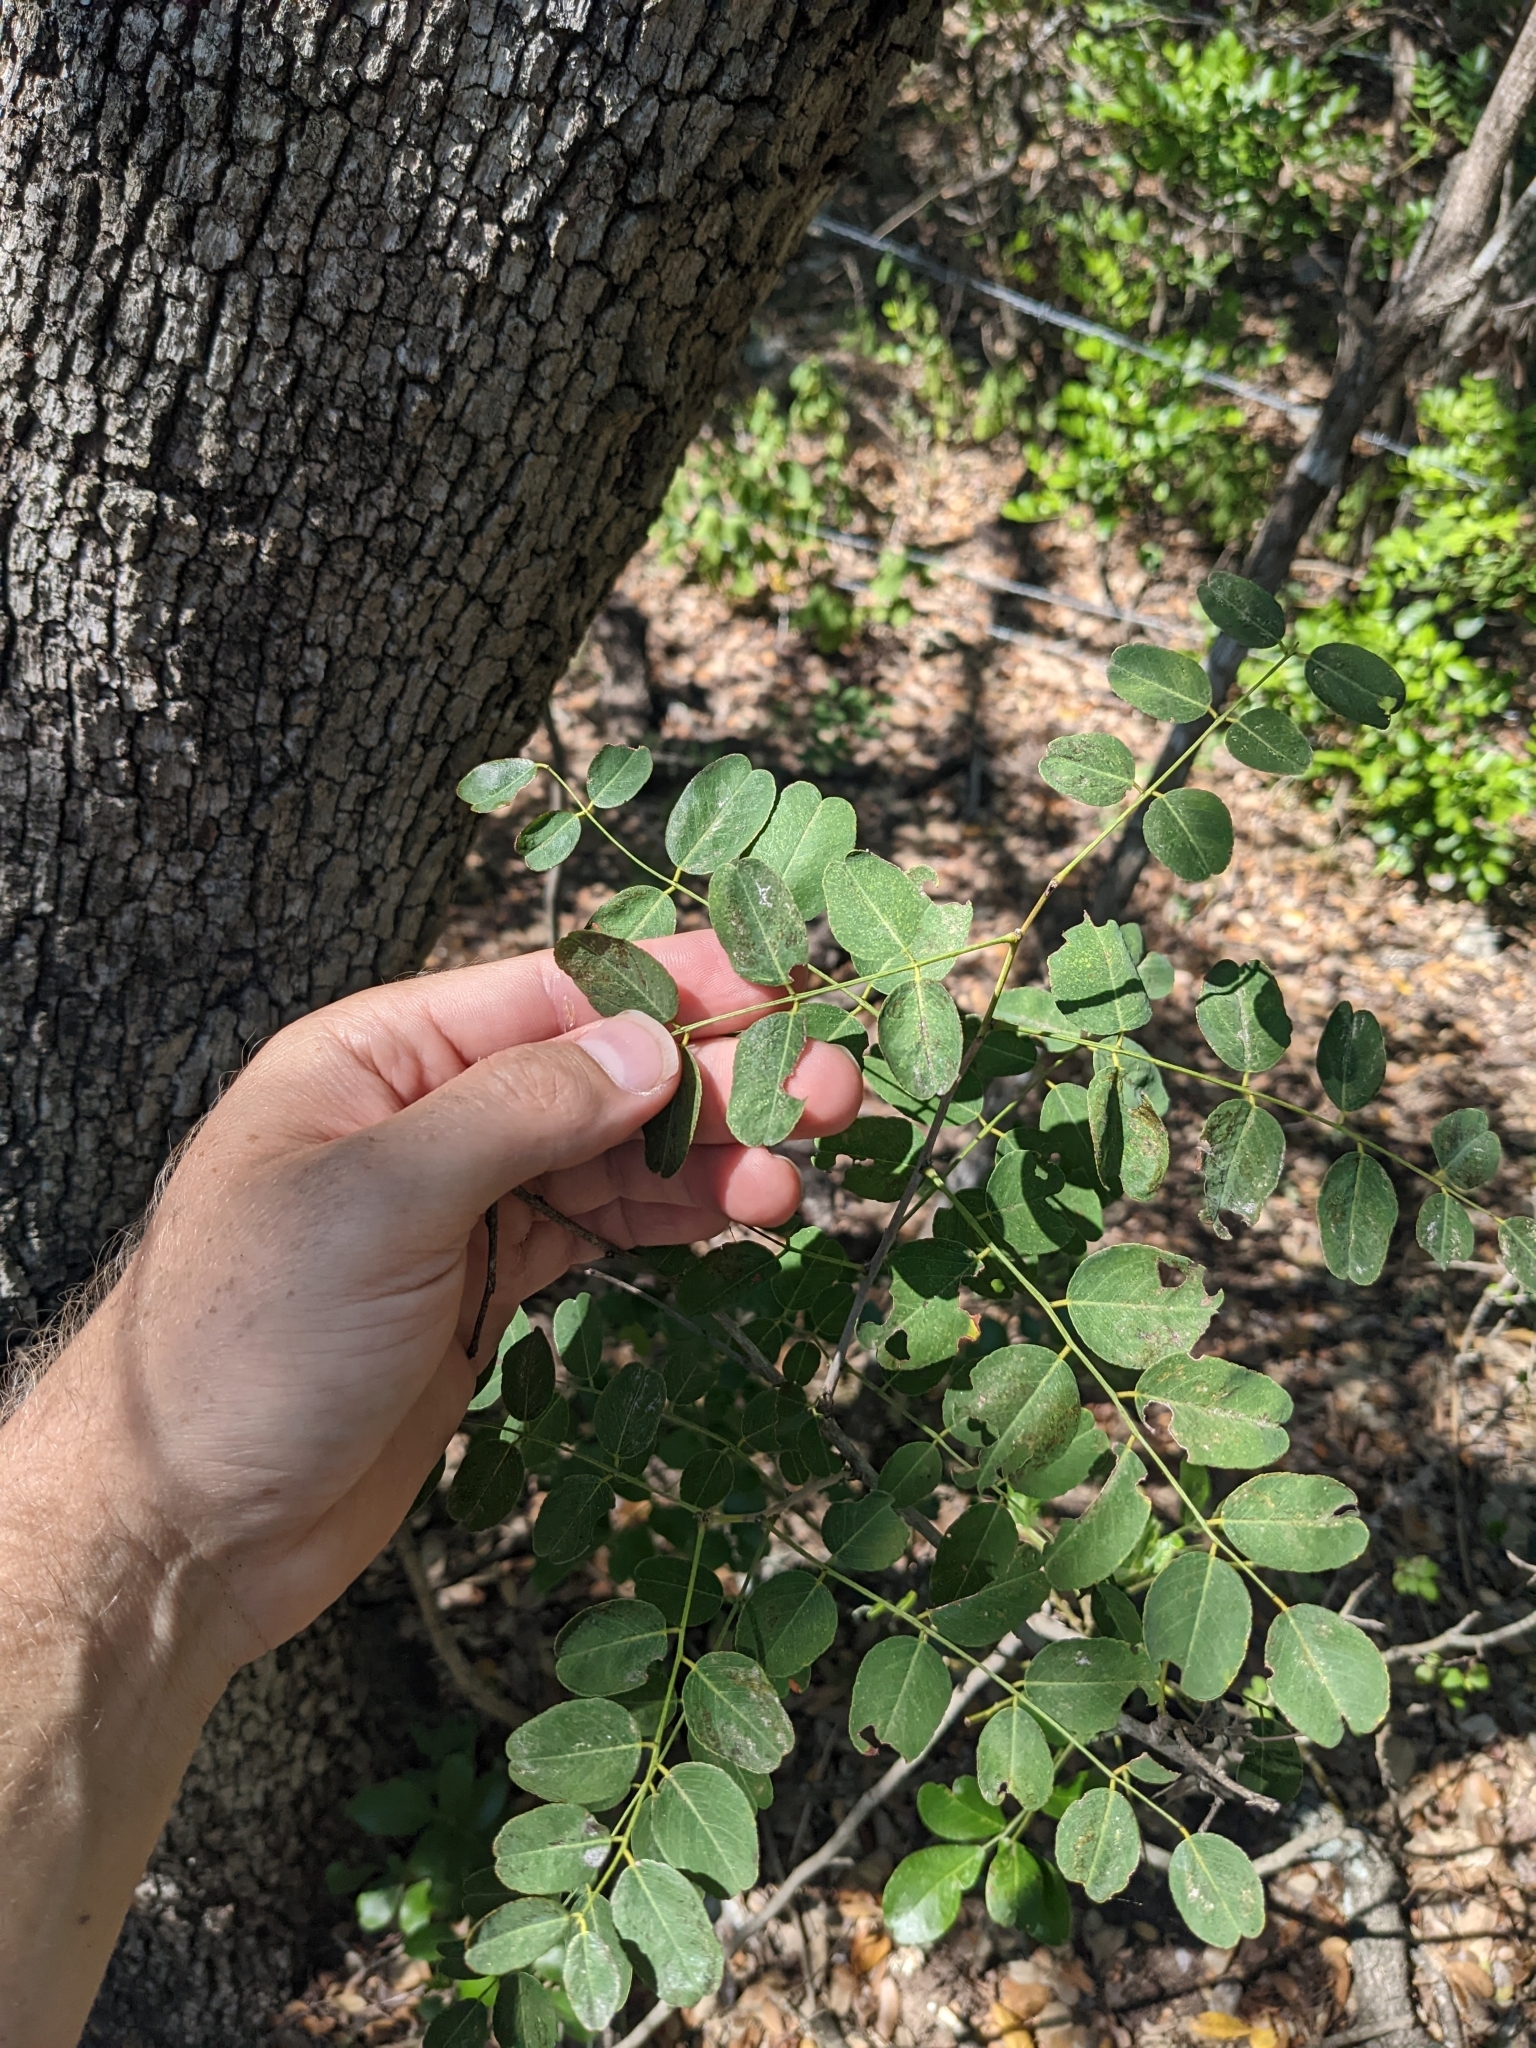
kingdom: Plantae
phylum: Tracheophyta
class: Magnoliopsida
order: Fabales
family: Fabaceae
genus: Amorpha
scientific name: Amorpha roemeriana
